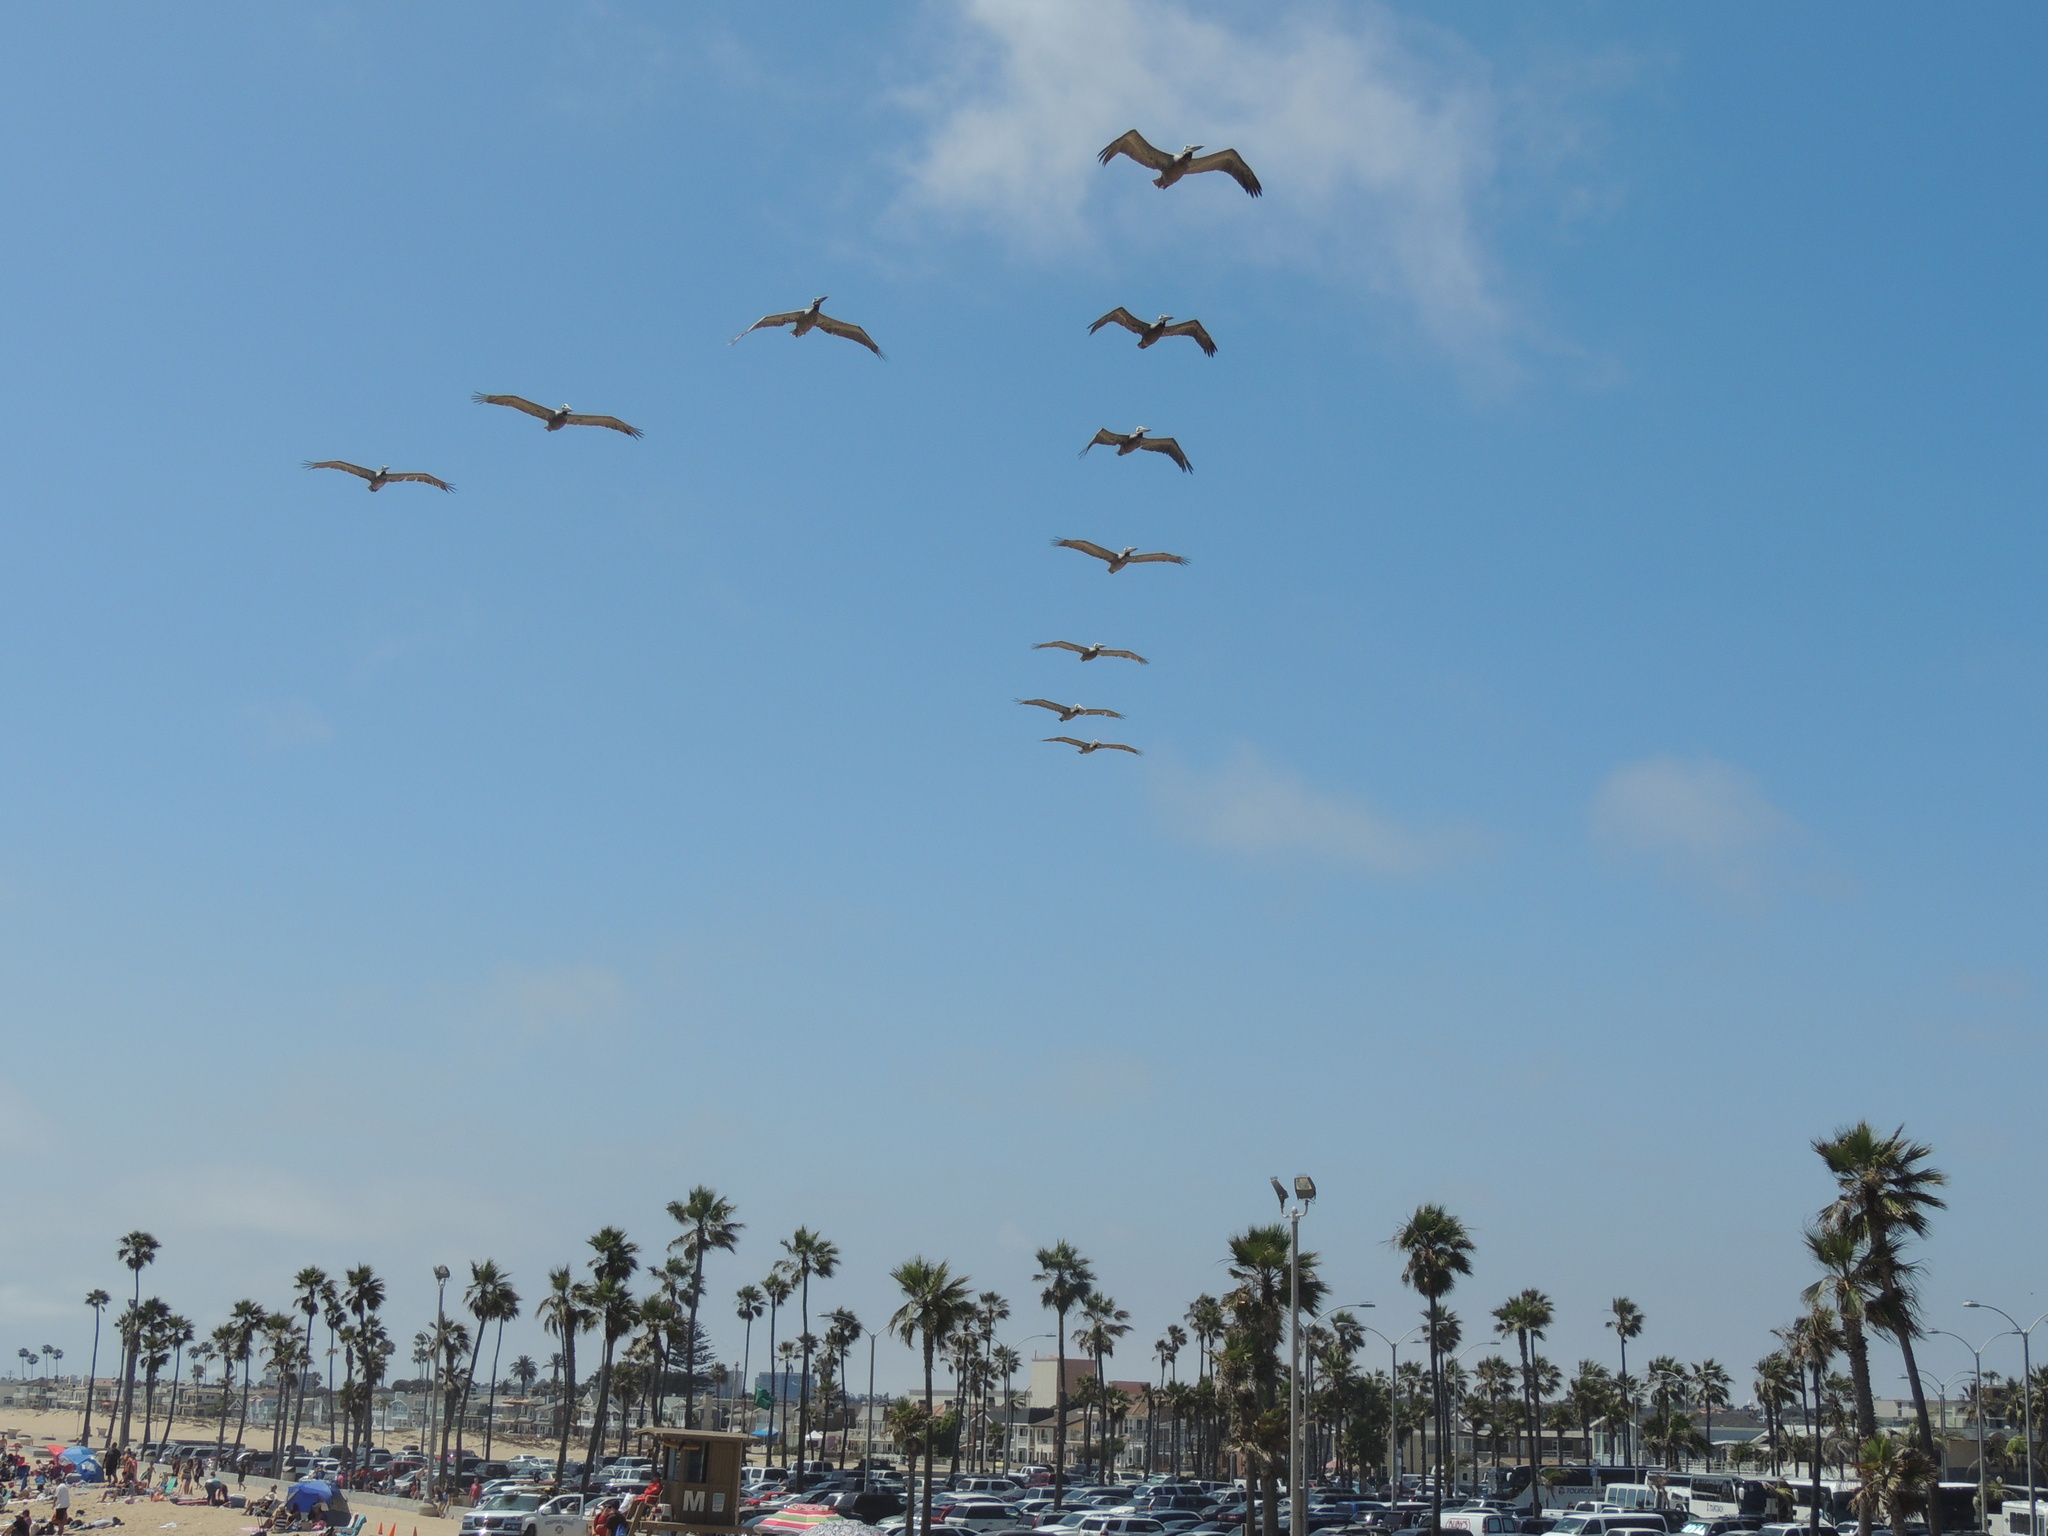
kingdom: Animalia
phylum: Chordata
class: Aves
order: Pelecaniformes
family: Pelecanidae
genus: Pelecanus
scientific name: Pelecanus occidentalis
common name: Brown pelican
